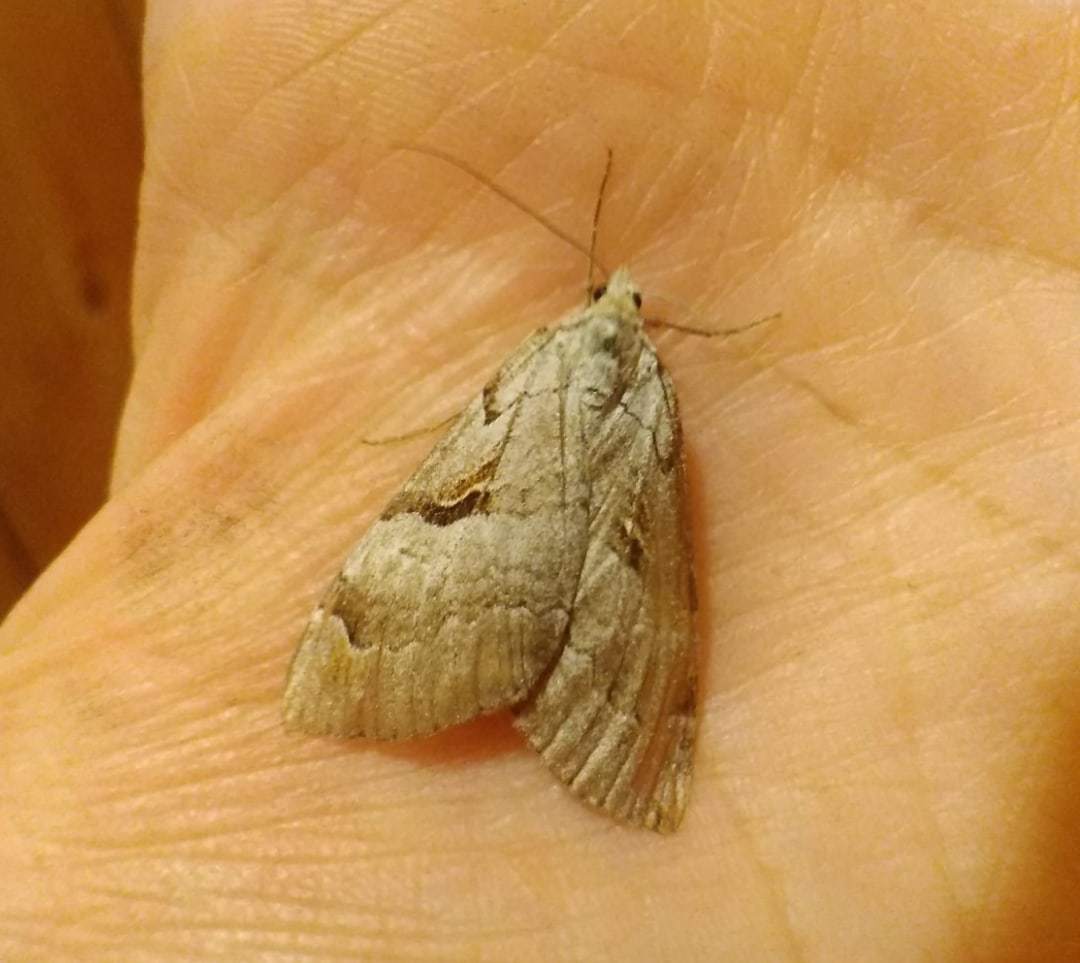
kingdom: Animalia
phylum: Arthropoda
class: Insecta
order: Lepidoptera
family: Geometridae
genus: Aplocera
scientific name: Aplocera praeformata
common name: Purple treble-bar
